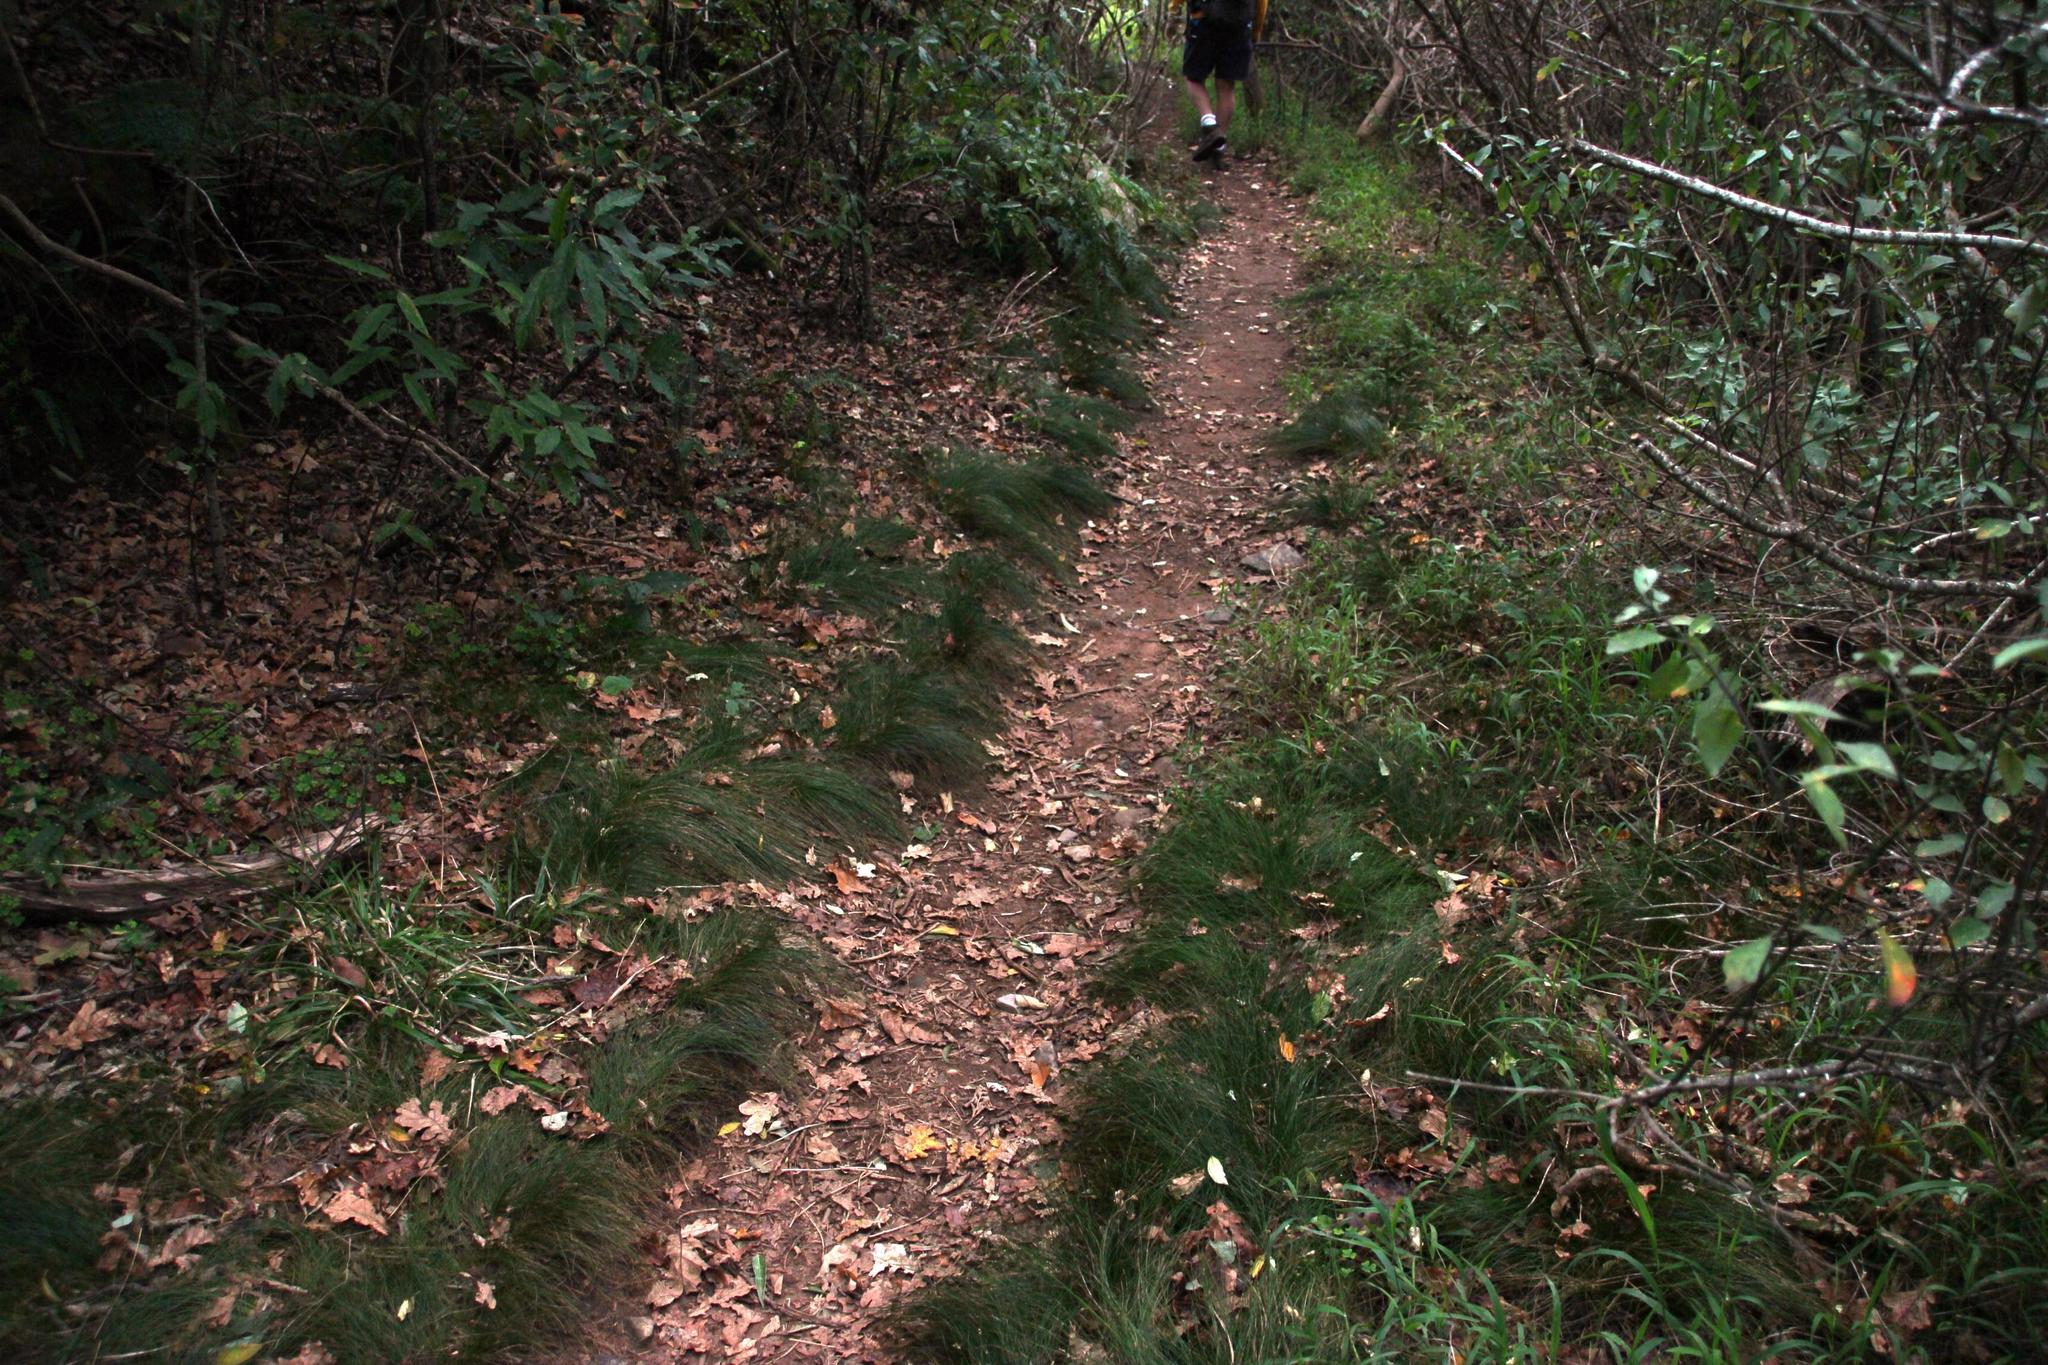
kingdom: Plantae
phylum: Tracheophyta
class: Liliopsida
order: Poales
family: Juncaceae
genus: Juncus
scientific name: Juncus capillaceus
